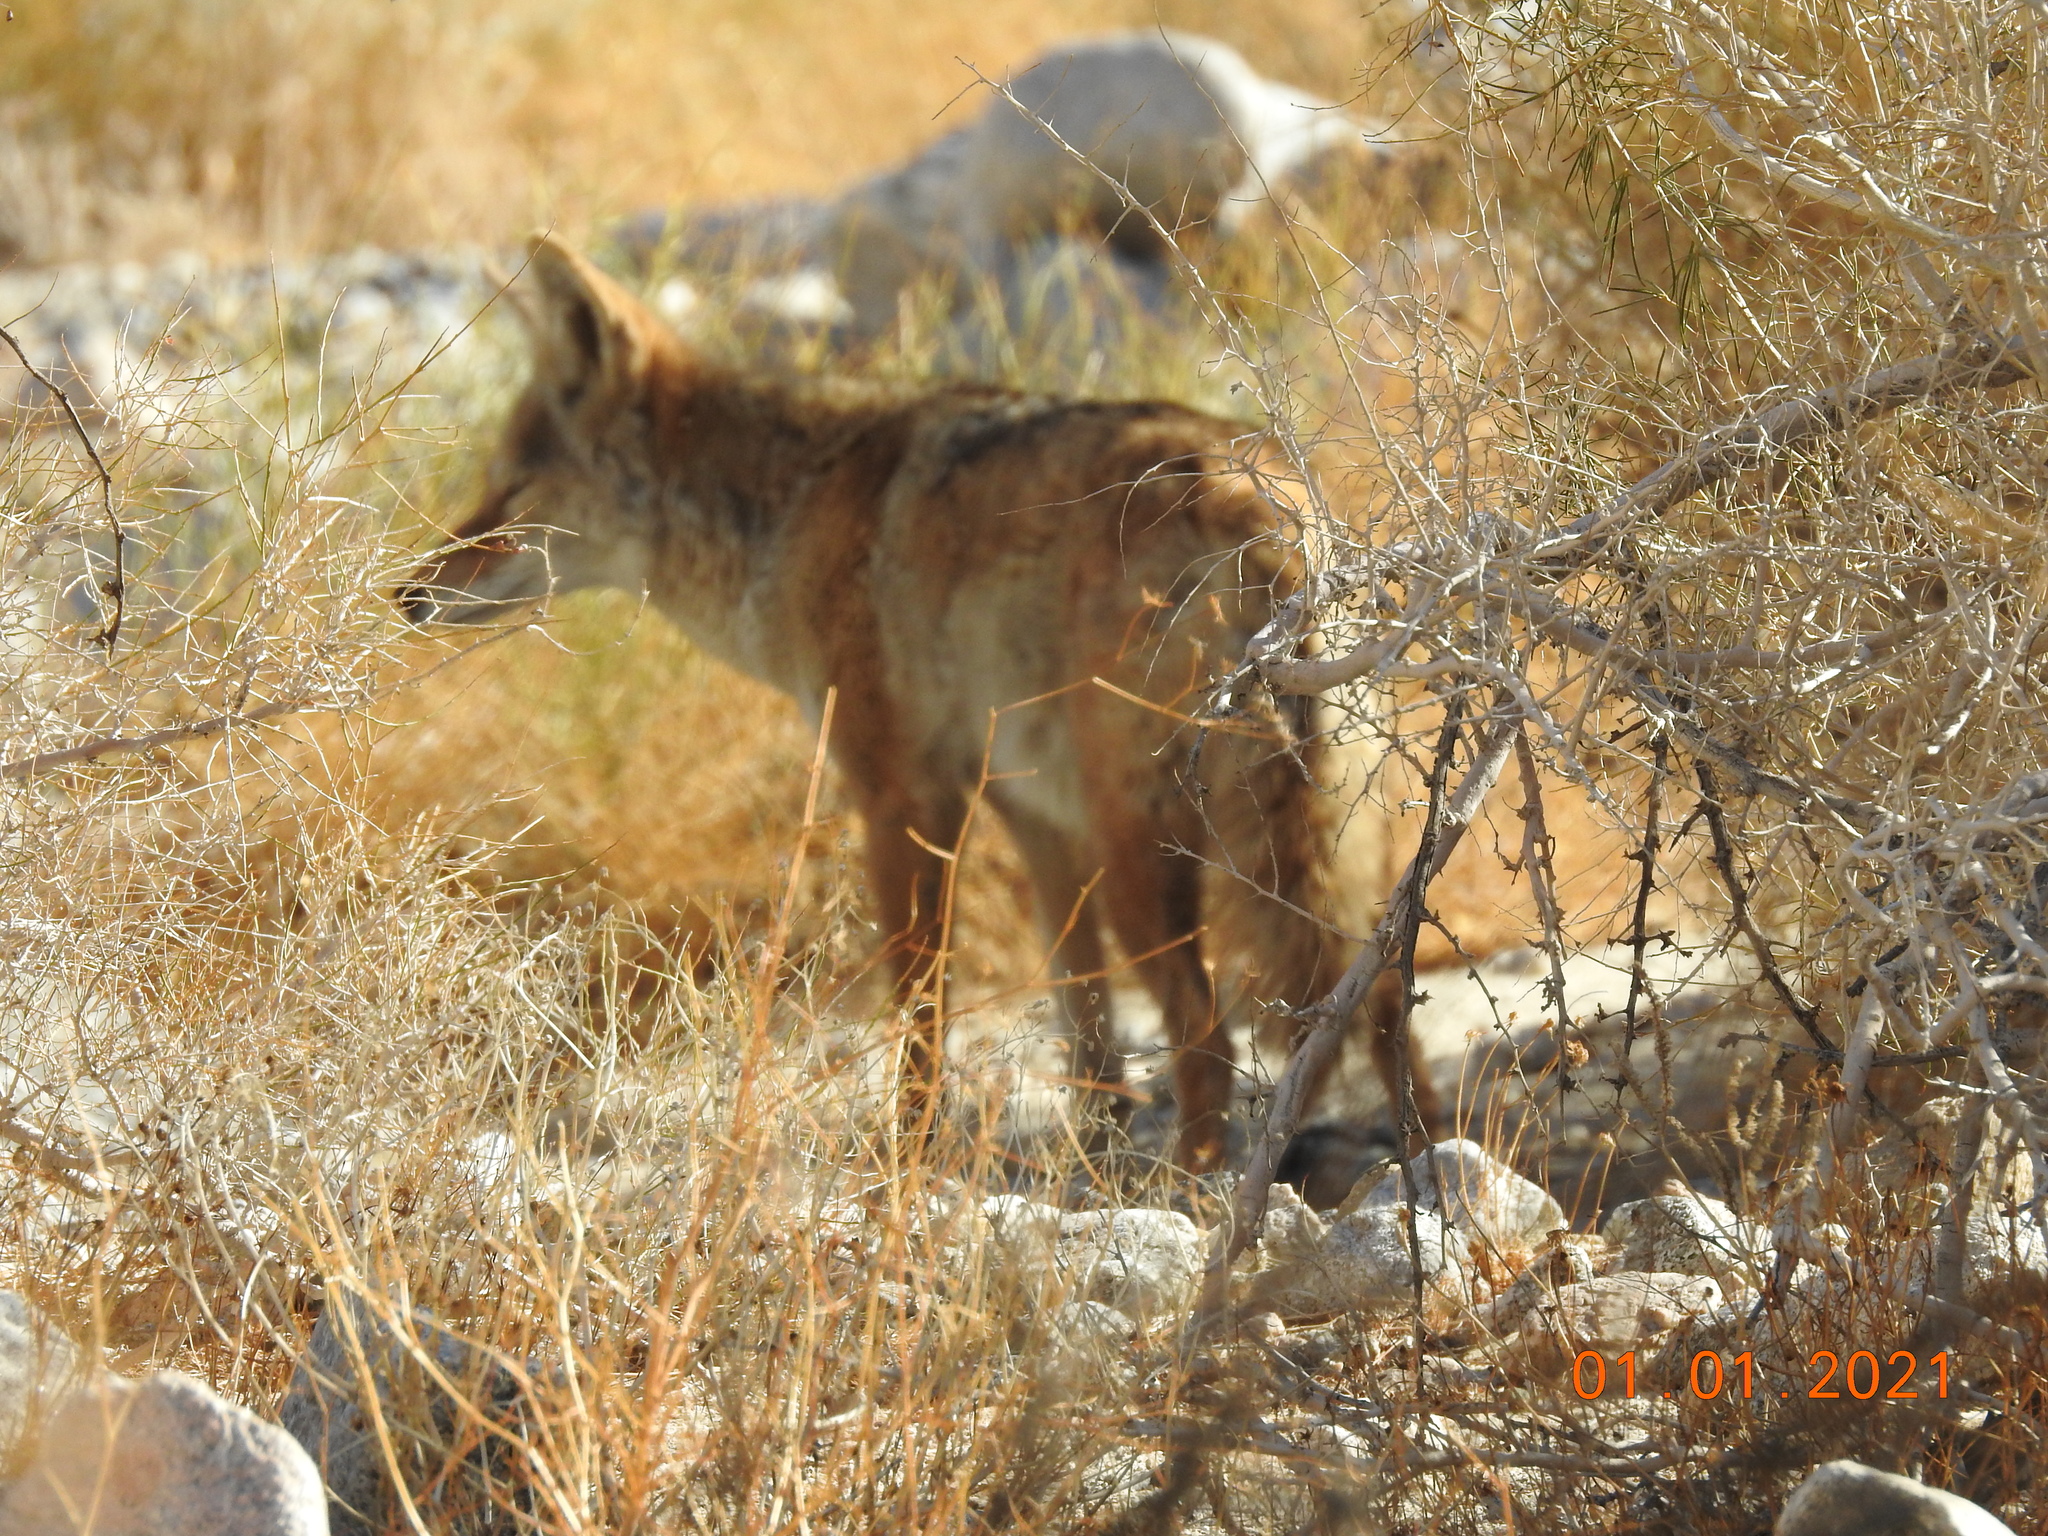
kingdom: Animalia
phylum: Chordata
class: Mammalia
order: Carnivora
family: Canidae
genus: Canis
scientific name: Canis latrans
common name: Coyote
